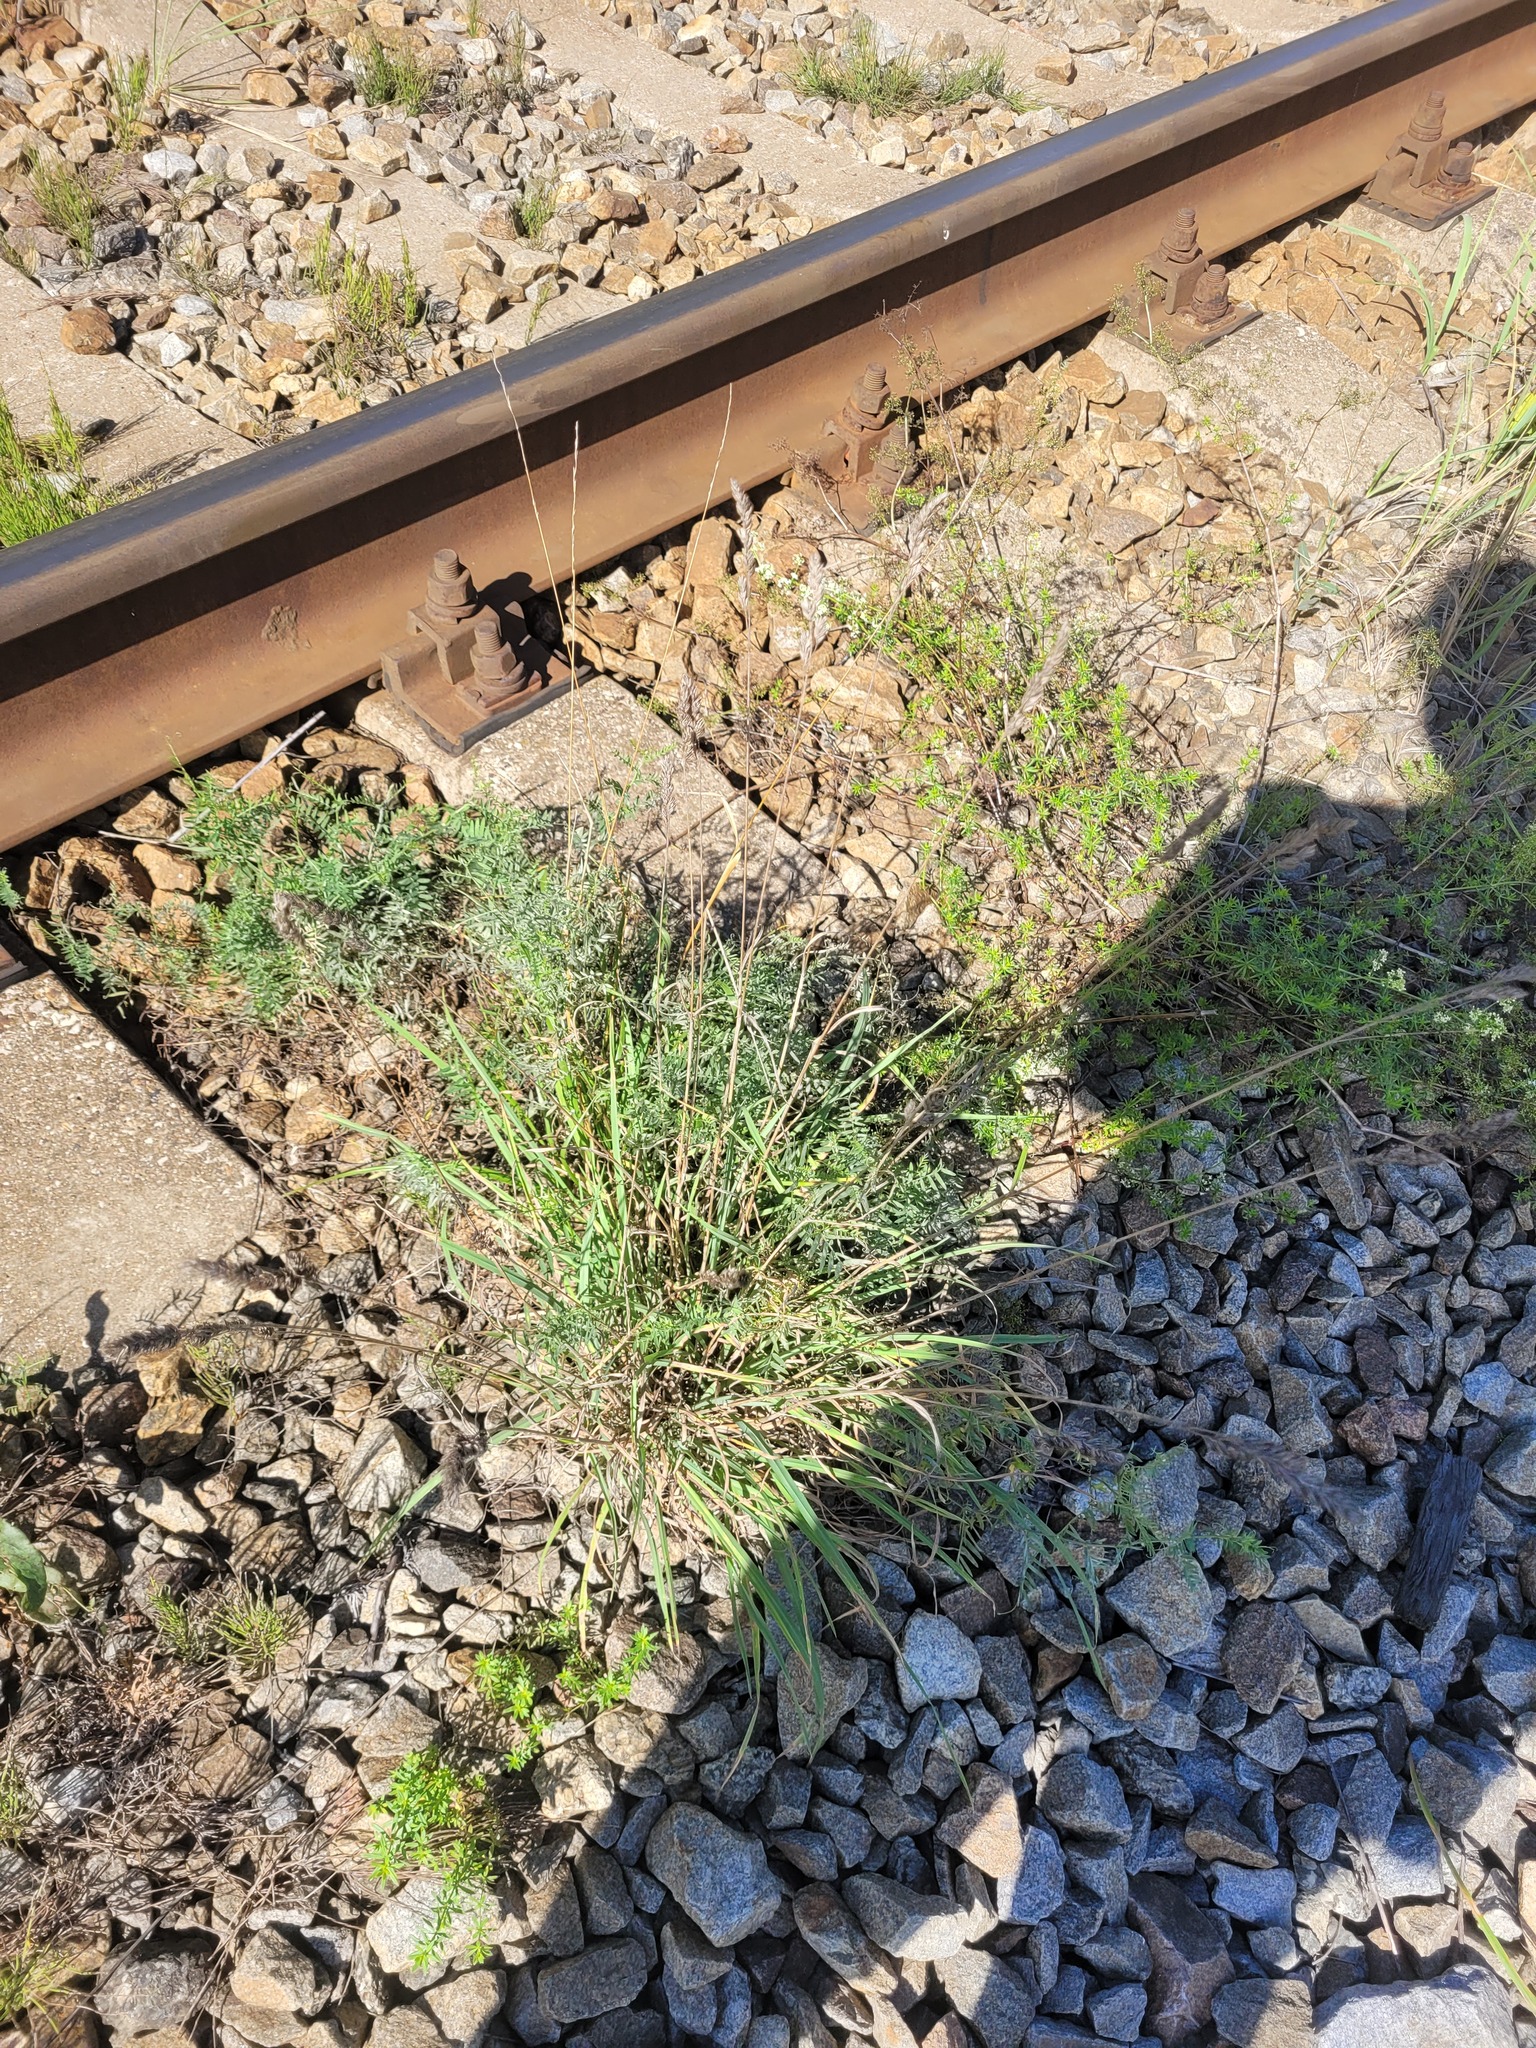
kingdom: Plantae
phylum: Tracheophyta
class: Liliopsida
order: Poales
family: Poaceae
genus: Dactylis
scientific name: Dactylis glomerata
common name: Orchardgrass
